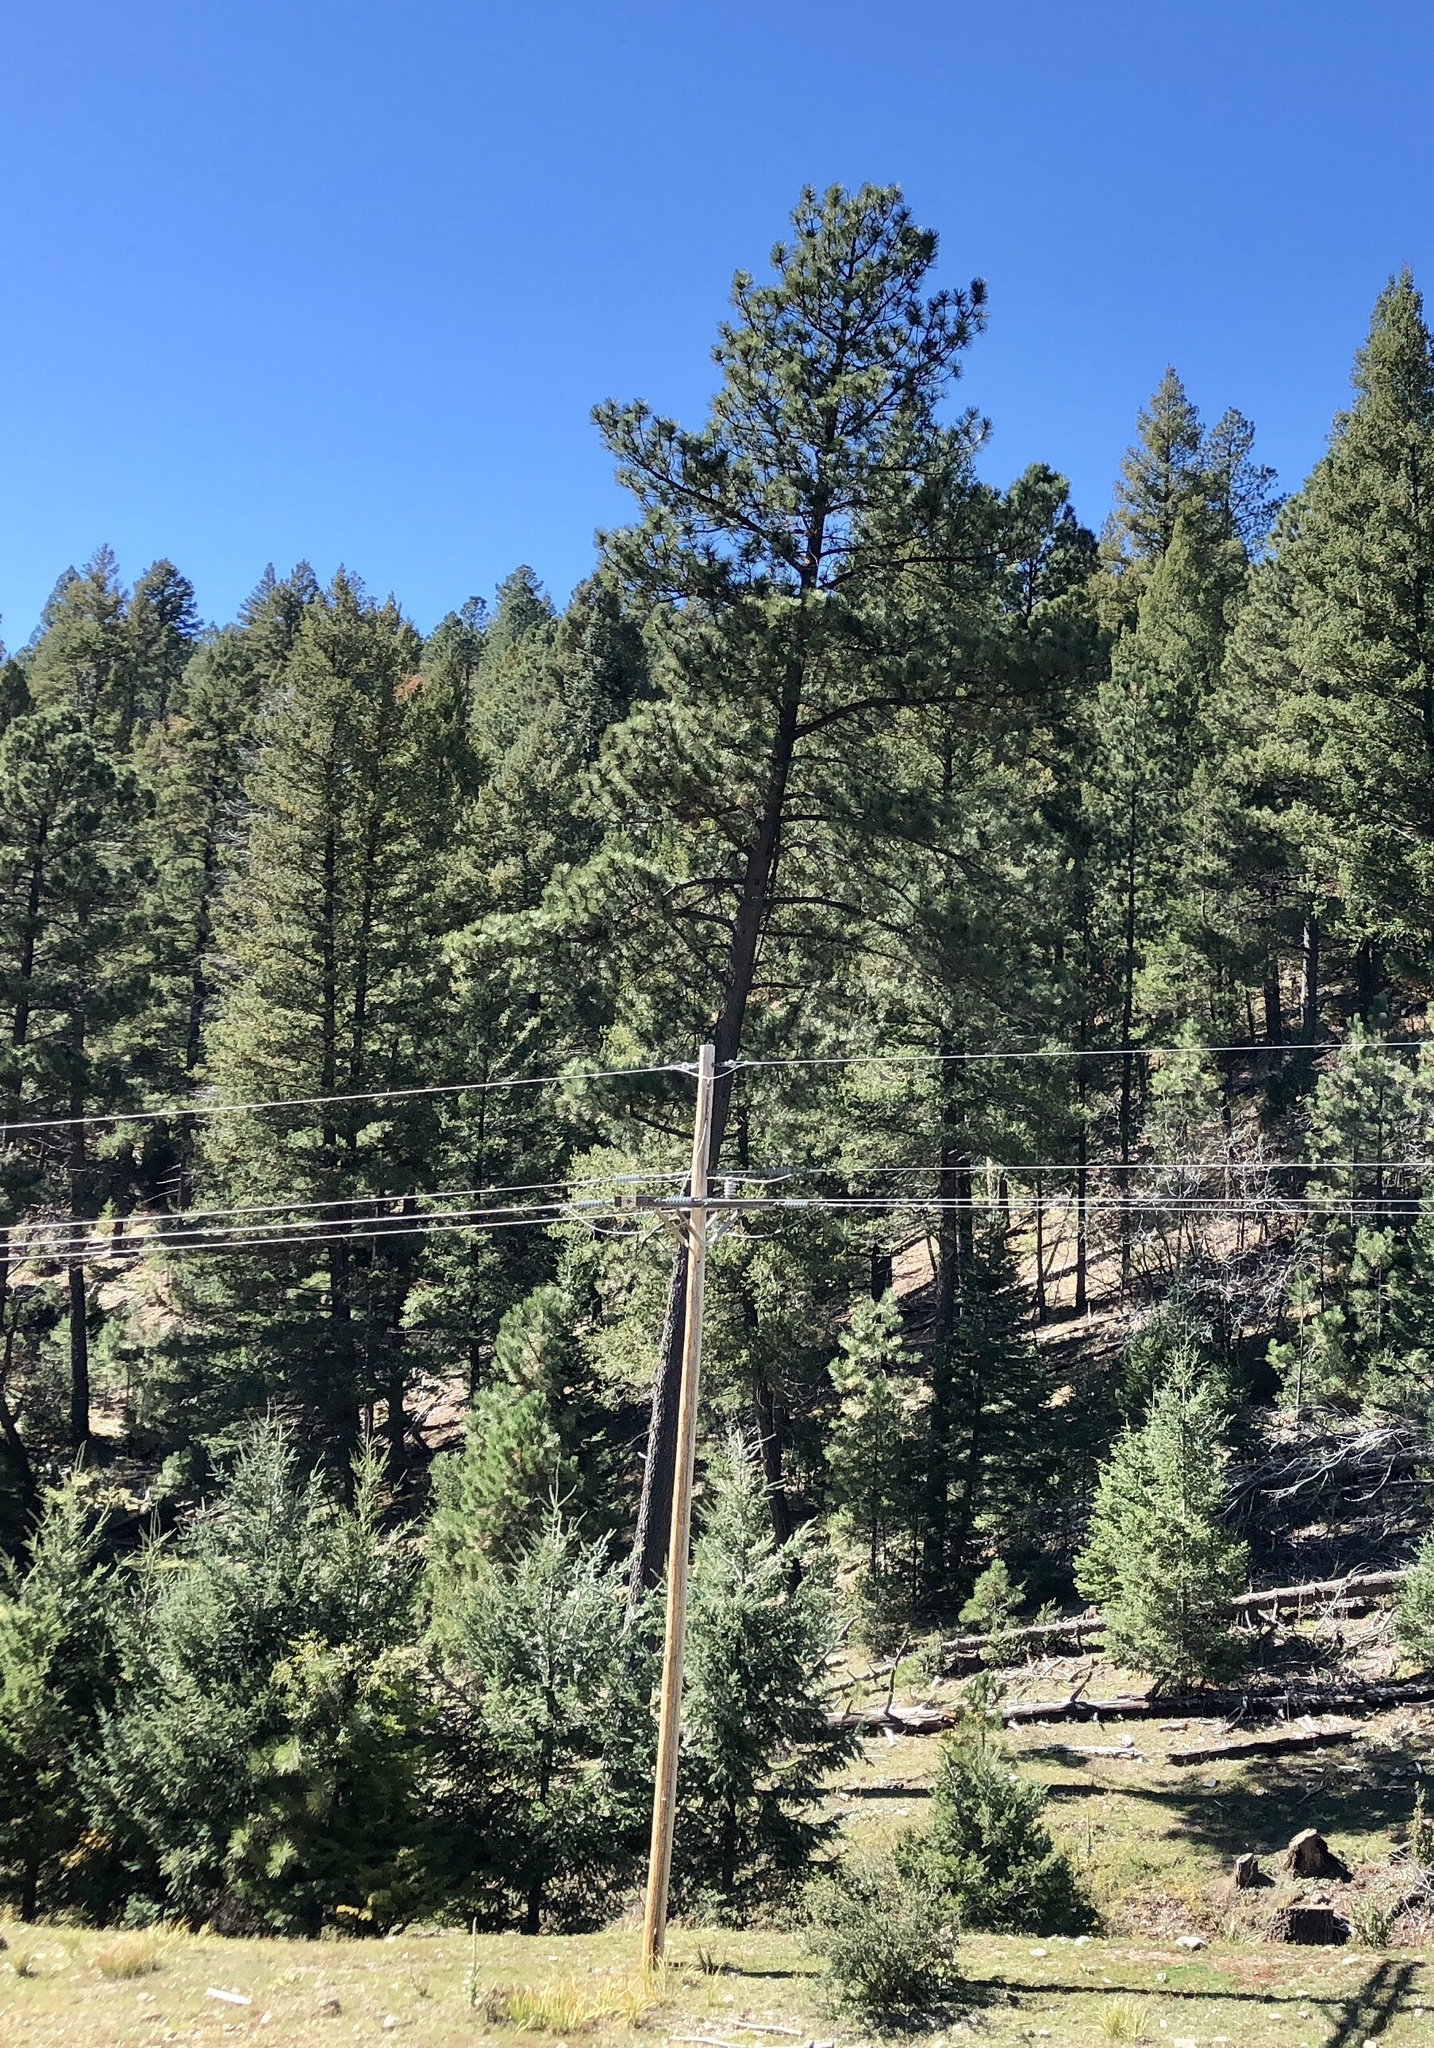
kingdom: Plantae
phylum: Tracheophyta
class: Pinopsida
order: Pinales
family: Pinaceae
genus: Pinus
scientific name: Pinus ponderosa
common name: Western yellow-pine
